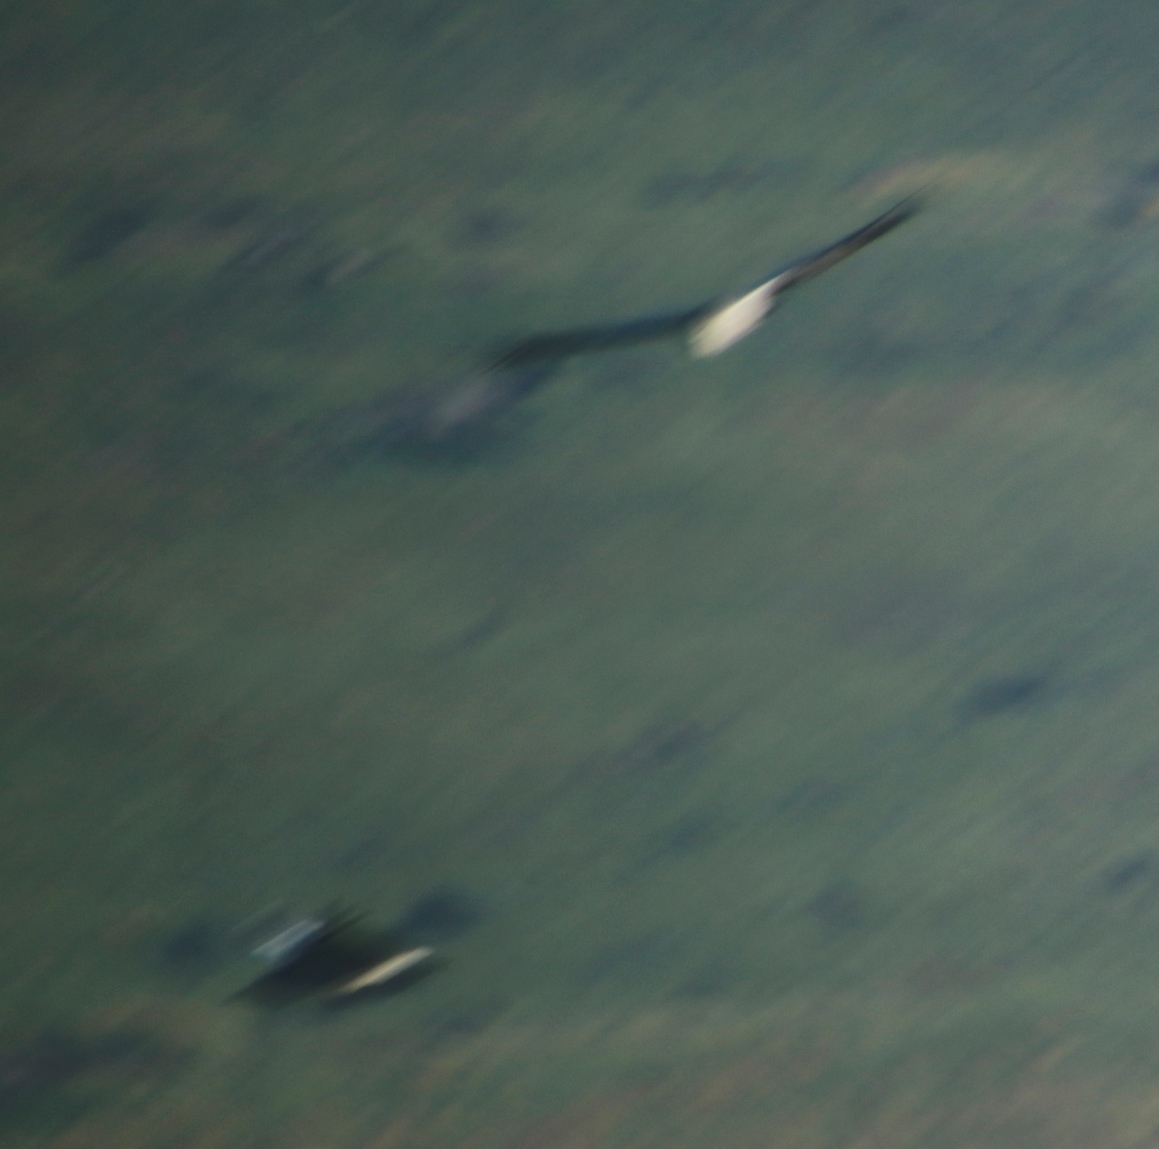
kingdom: Animalia
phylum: Chordata
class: Aves
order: Accipitriformes
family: Accipitridae
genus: Gypaetus
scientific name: Gypaetus barbatus
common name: Bearded vulture
